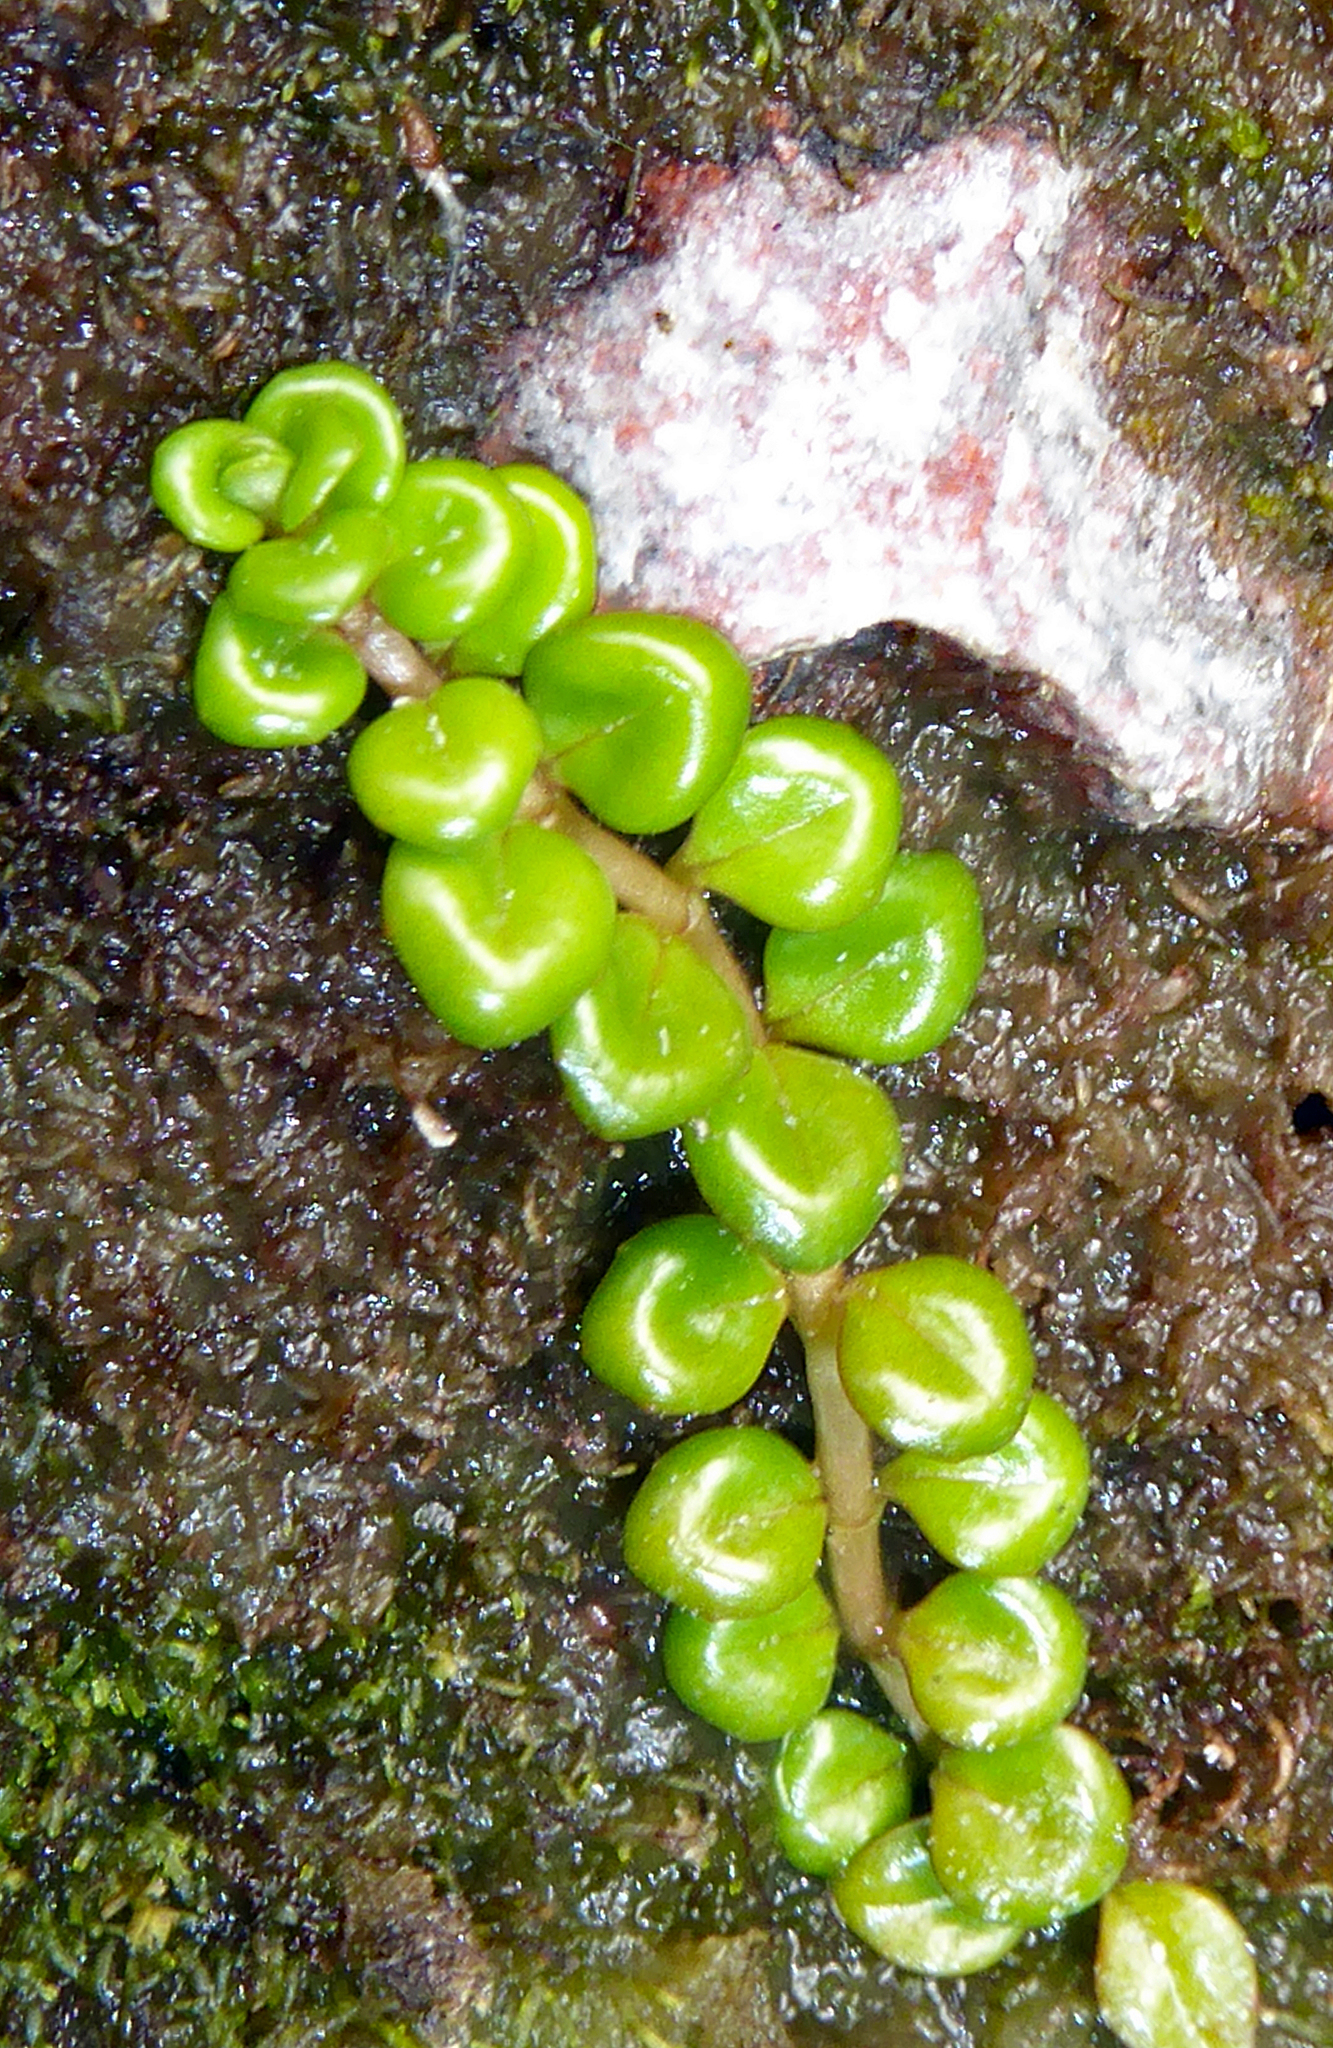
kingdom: Plantae
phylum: Tracheophyta
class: Magnoliopsida
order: Myrtales
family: Onagraceae
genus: Epilobium
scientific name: Epilobium pernitens
